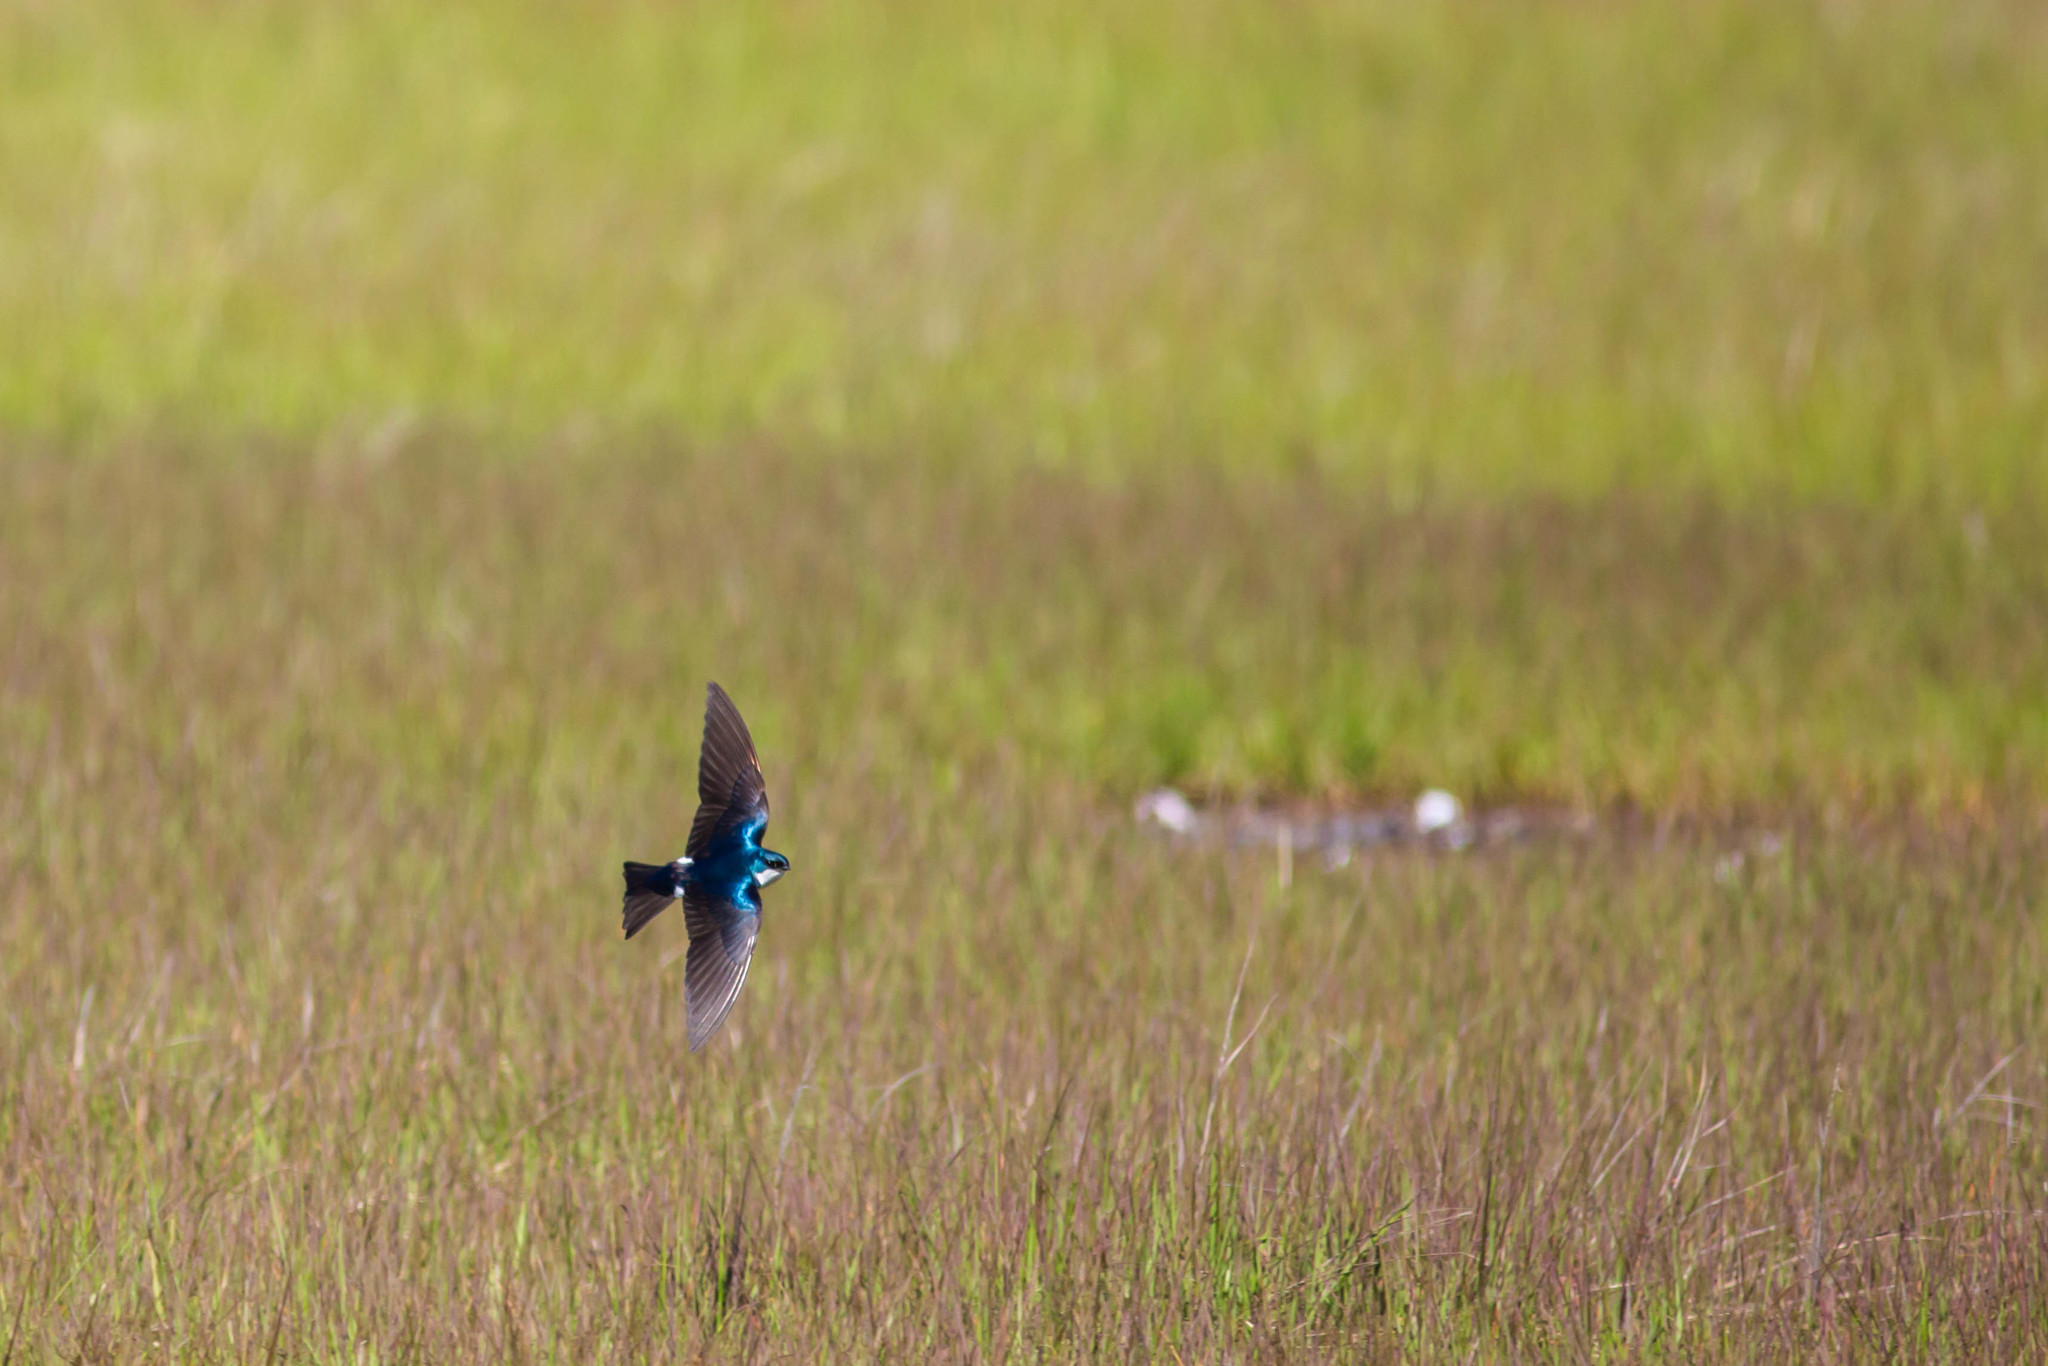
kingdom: Animalia
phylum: Chordata
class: Aves
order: Passeriformes
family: Hirundinidae
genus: Tachycineta
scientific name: Tachycineta bicolor
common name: Tree swallow
